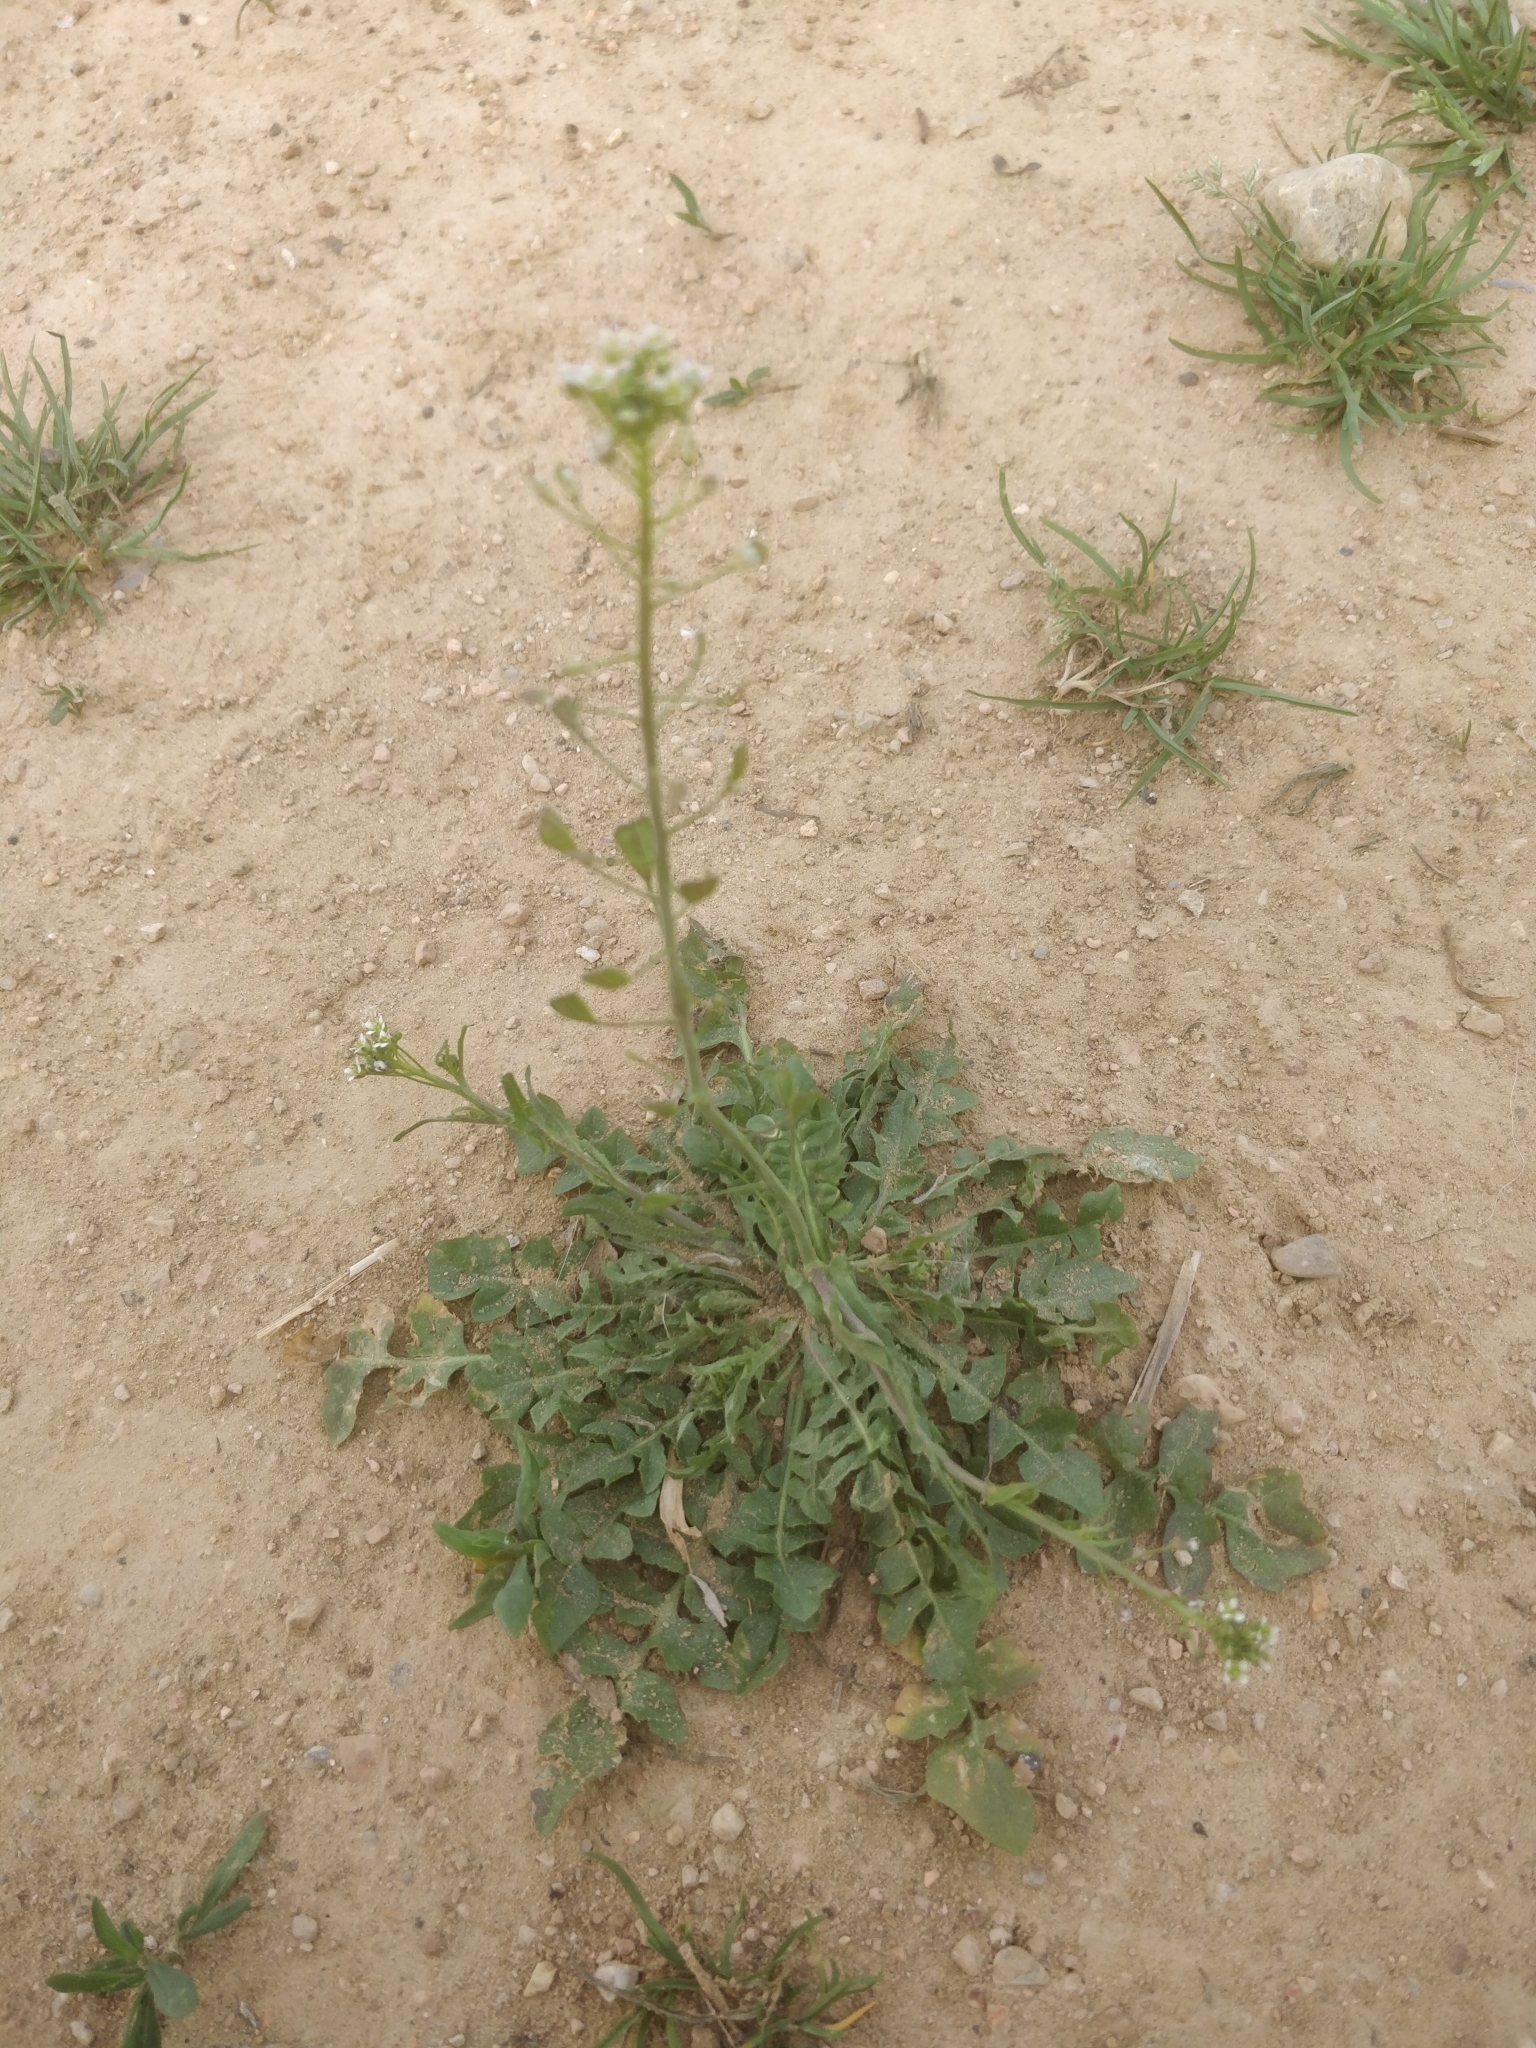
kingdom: Plantae
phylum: Tracheophyta
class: Magnoliopsida
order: Brassicales
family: Brassicaceae
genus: Capsella
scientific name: Capsella bursa-pastoris
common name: Shepherd's purse
